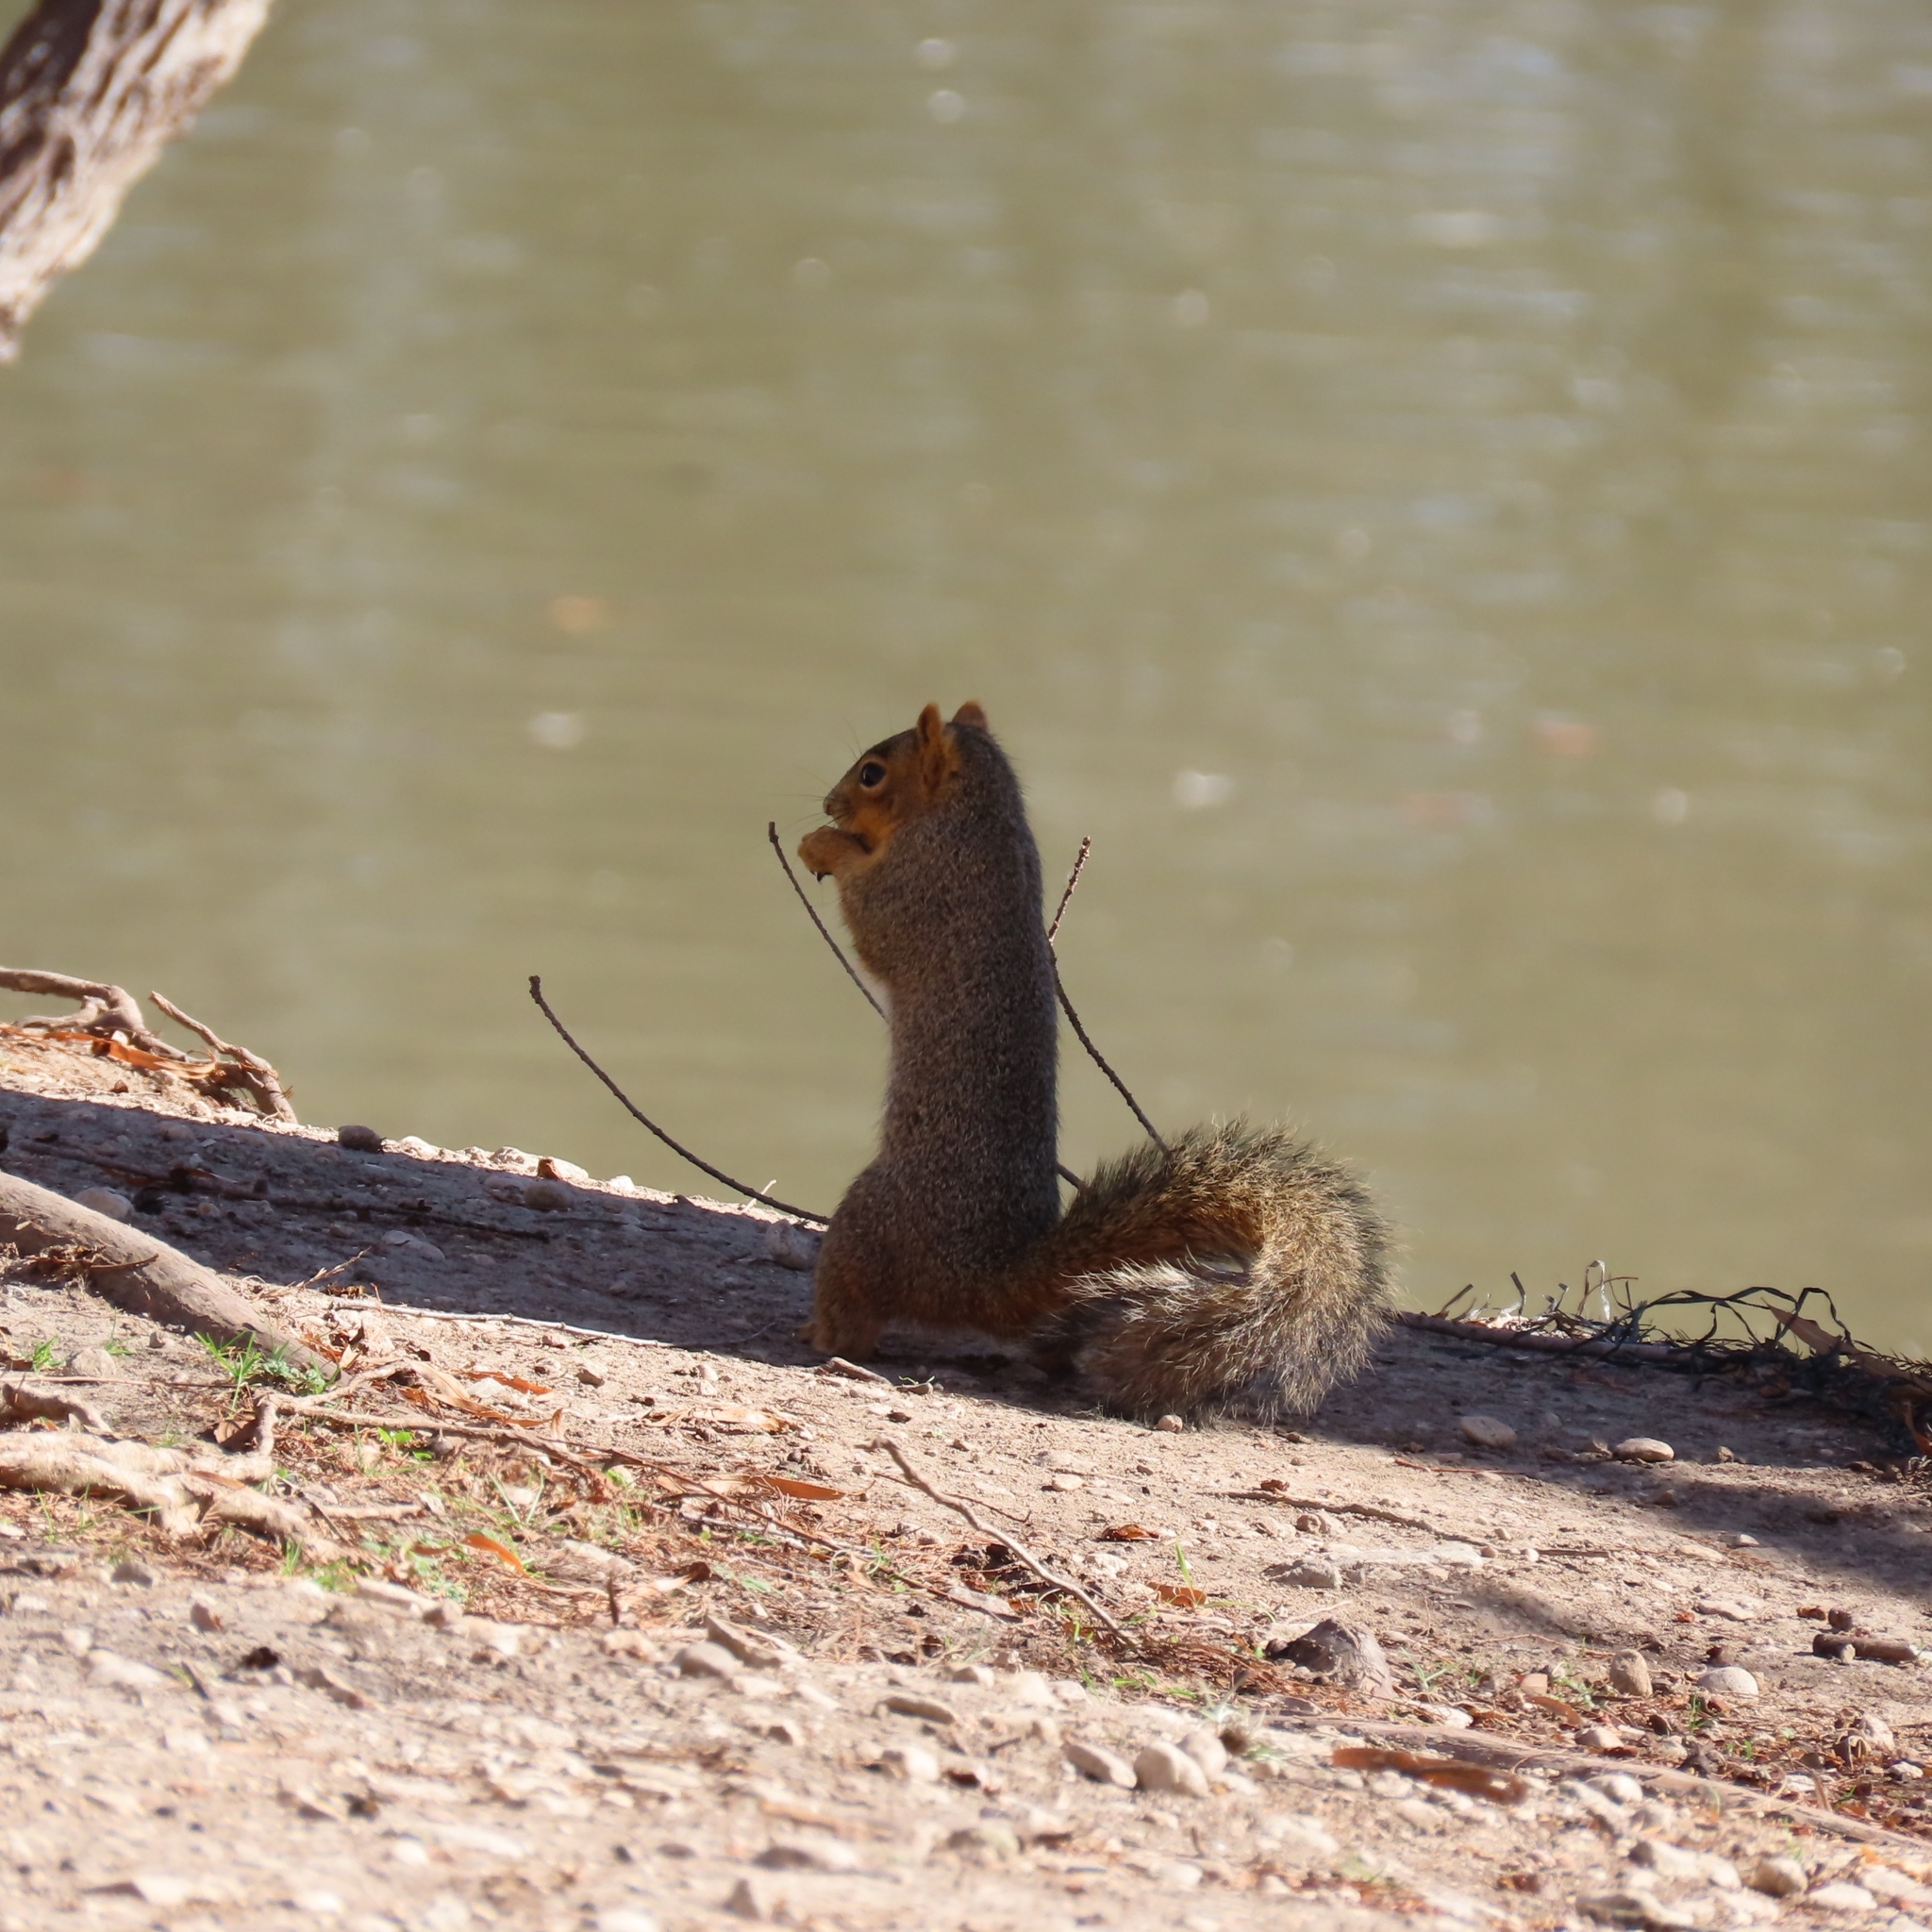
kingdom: Animalia
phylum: Chordata
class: Mammalia
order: Rodentia
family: Sciuridae
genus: Sciurus
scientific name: Sciurus niger
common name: Fox squirrel
